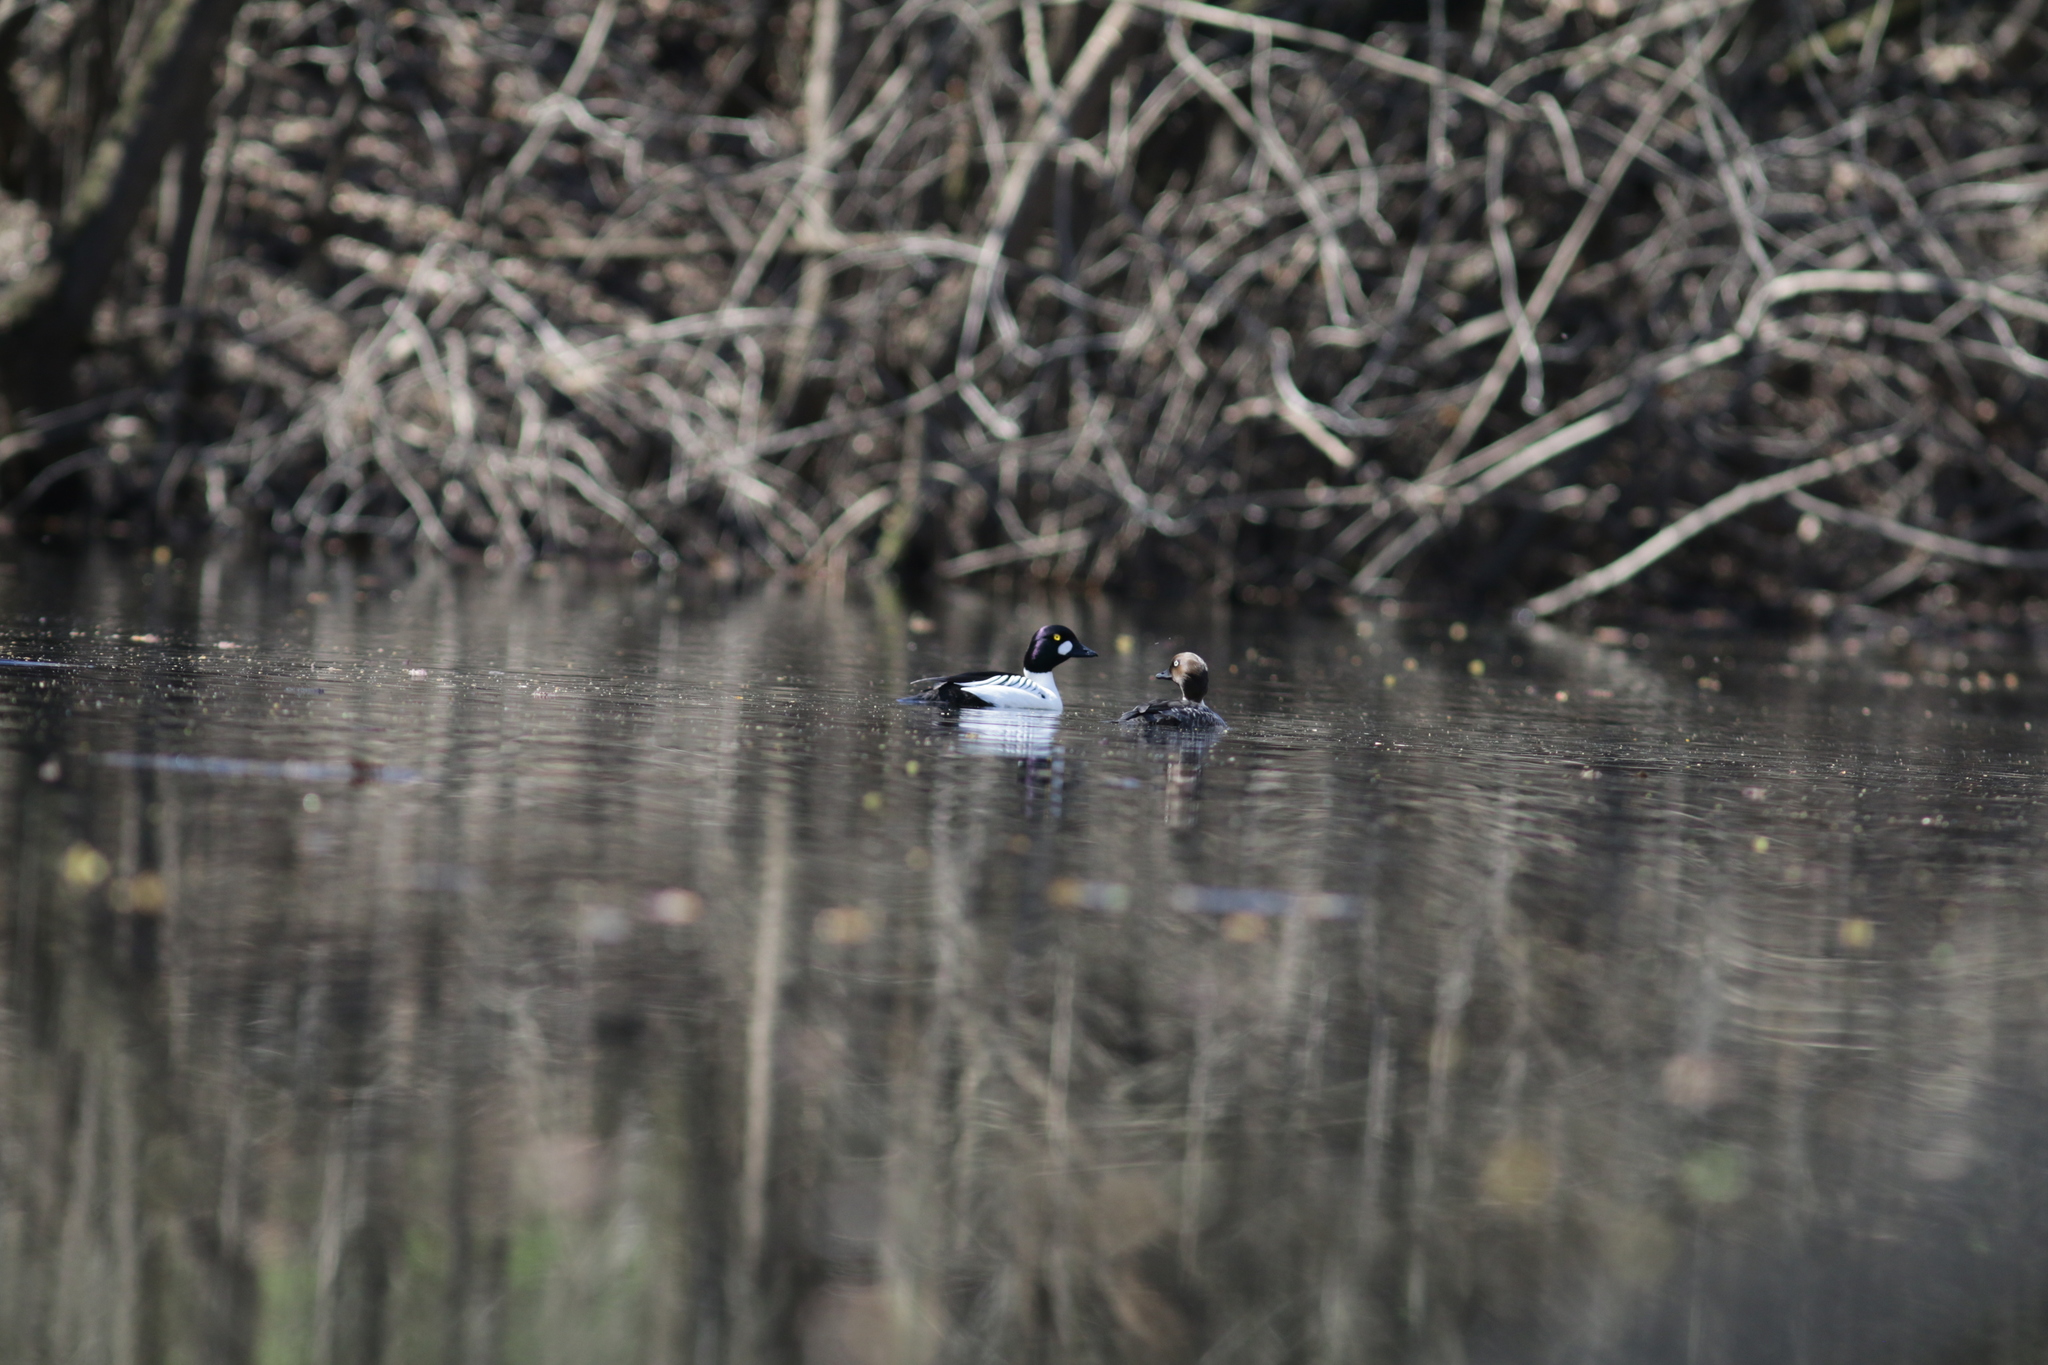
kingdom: Animalia
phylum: Chordata
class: Aves
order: Anseriformes
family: Anatidae
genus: Bucephala
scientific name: Bucephala clangula
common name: Common goldeneye
